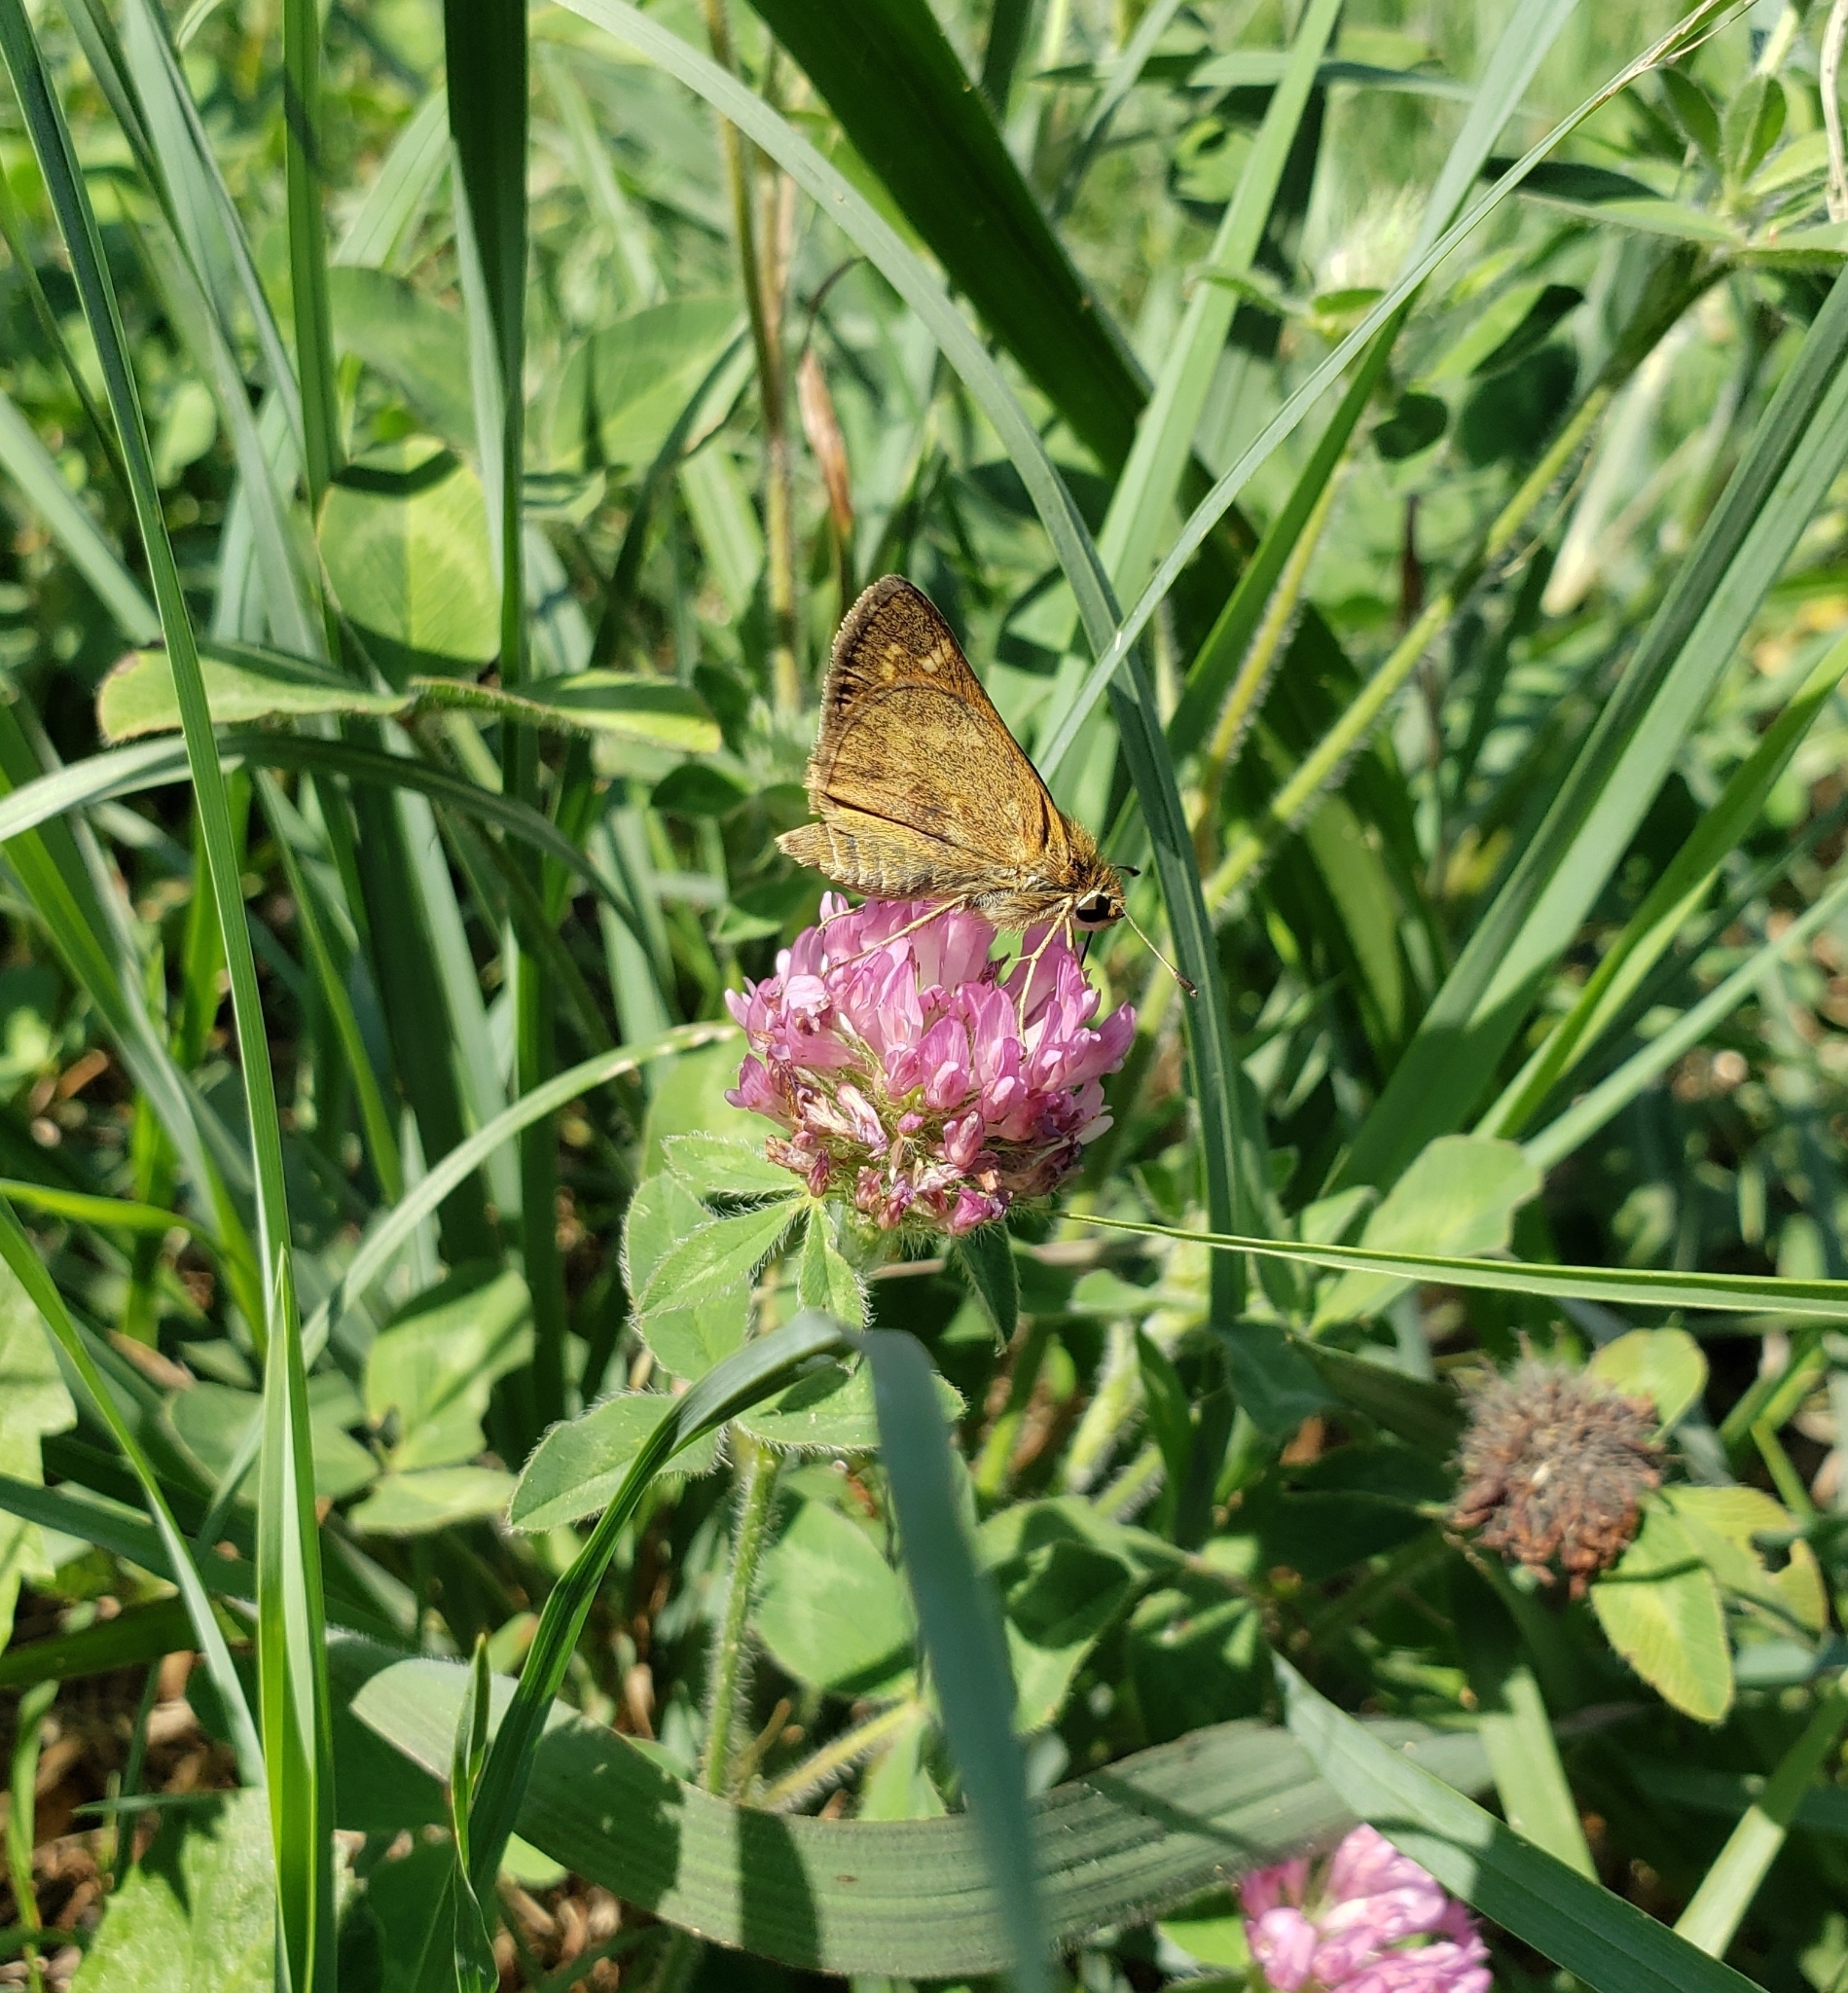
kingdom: Animalia
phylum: Arthropoda
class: Insecta
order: Lepidoptera
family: Hesperiidae
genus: Atalopedes
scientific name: Atalopedes
